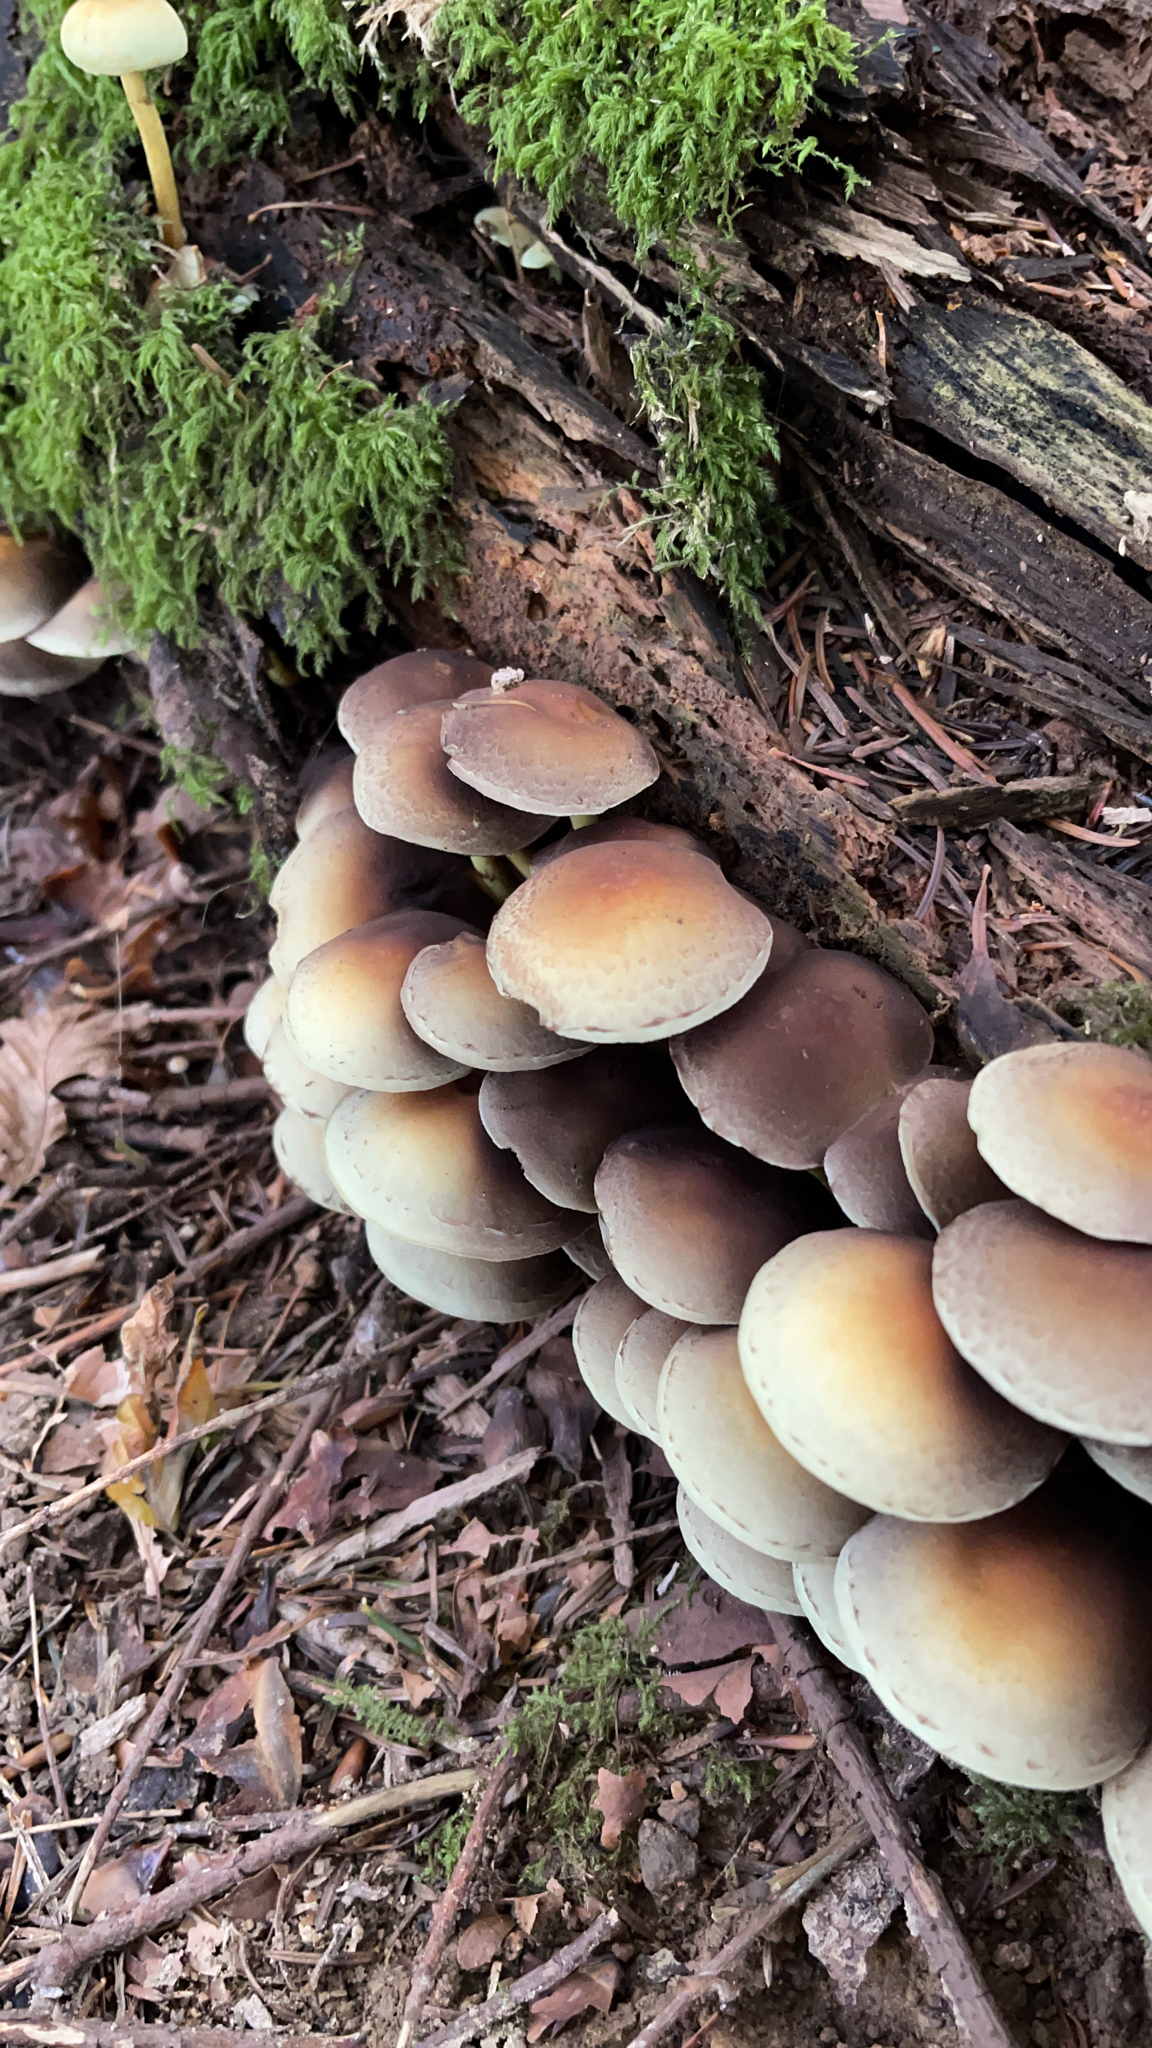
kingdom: Fungi
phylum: Basidiomycota
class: Agaricomycetes
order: Agaricales
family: Strophariaceae
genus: Hypholoma
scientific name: Hypholoma fasciculare
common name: Sulphur tuft
